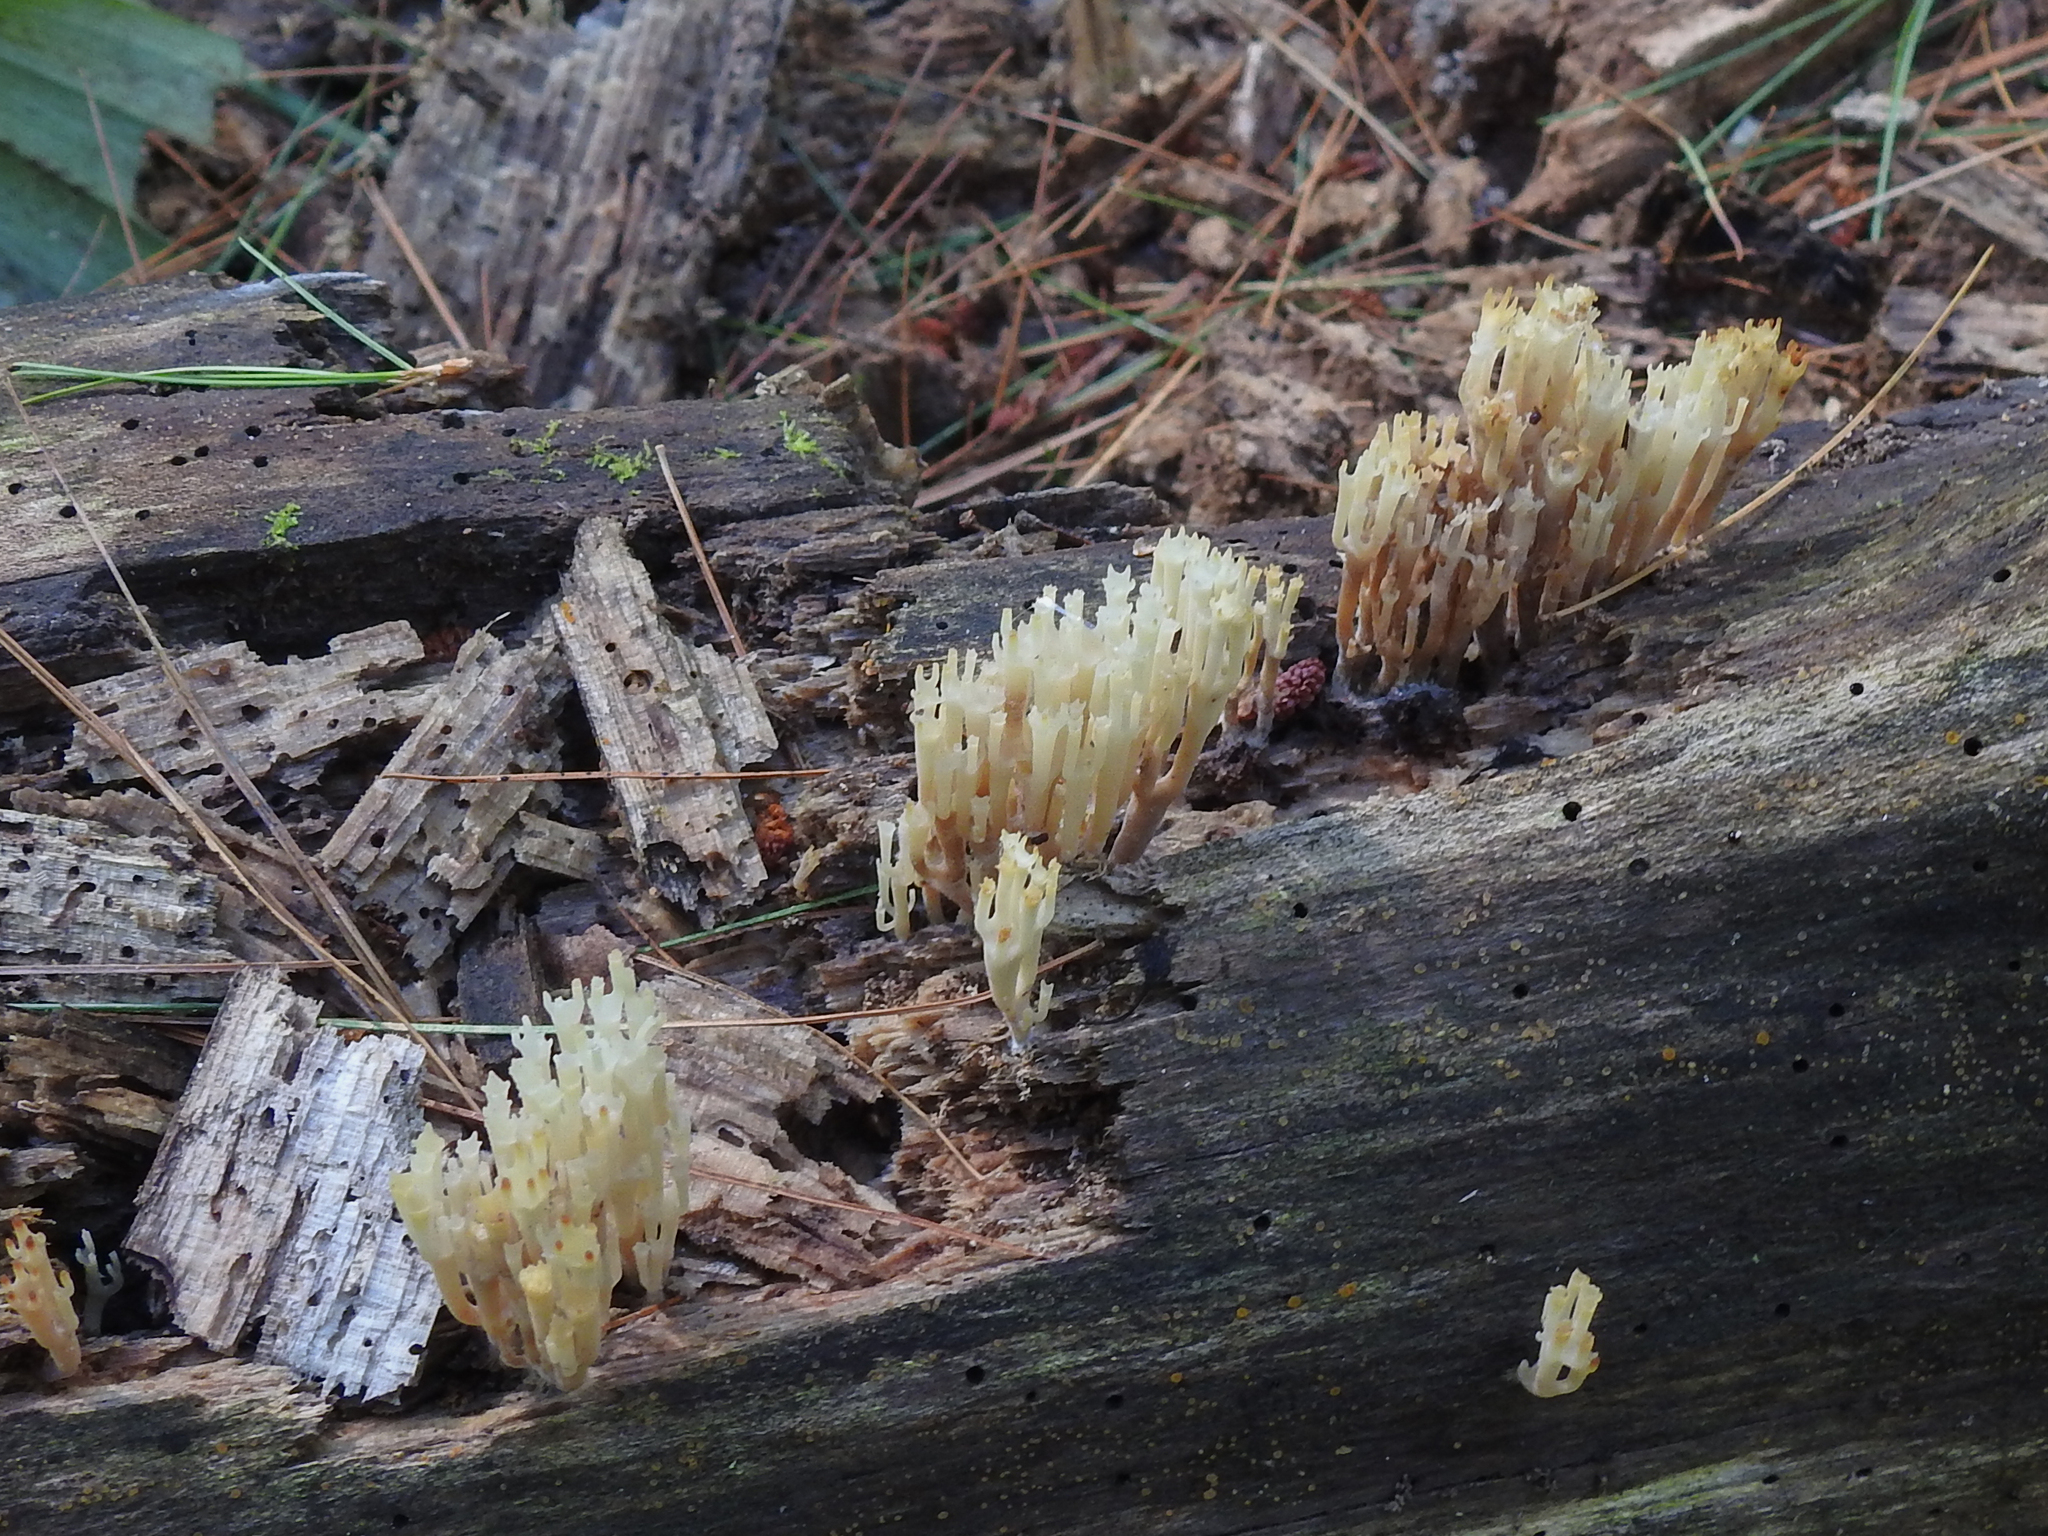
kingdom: Fungi
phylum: Basidiomycota
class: Agaricomycetes
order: Russulales
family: Auriscalpiaceae
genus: Artomyces
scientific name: Artomyces pyxidatus
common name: Crown-tipped coral fungus
